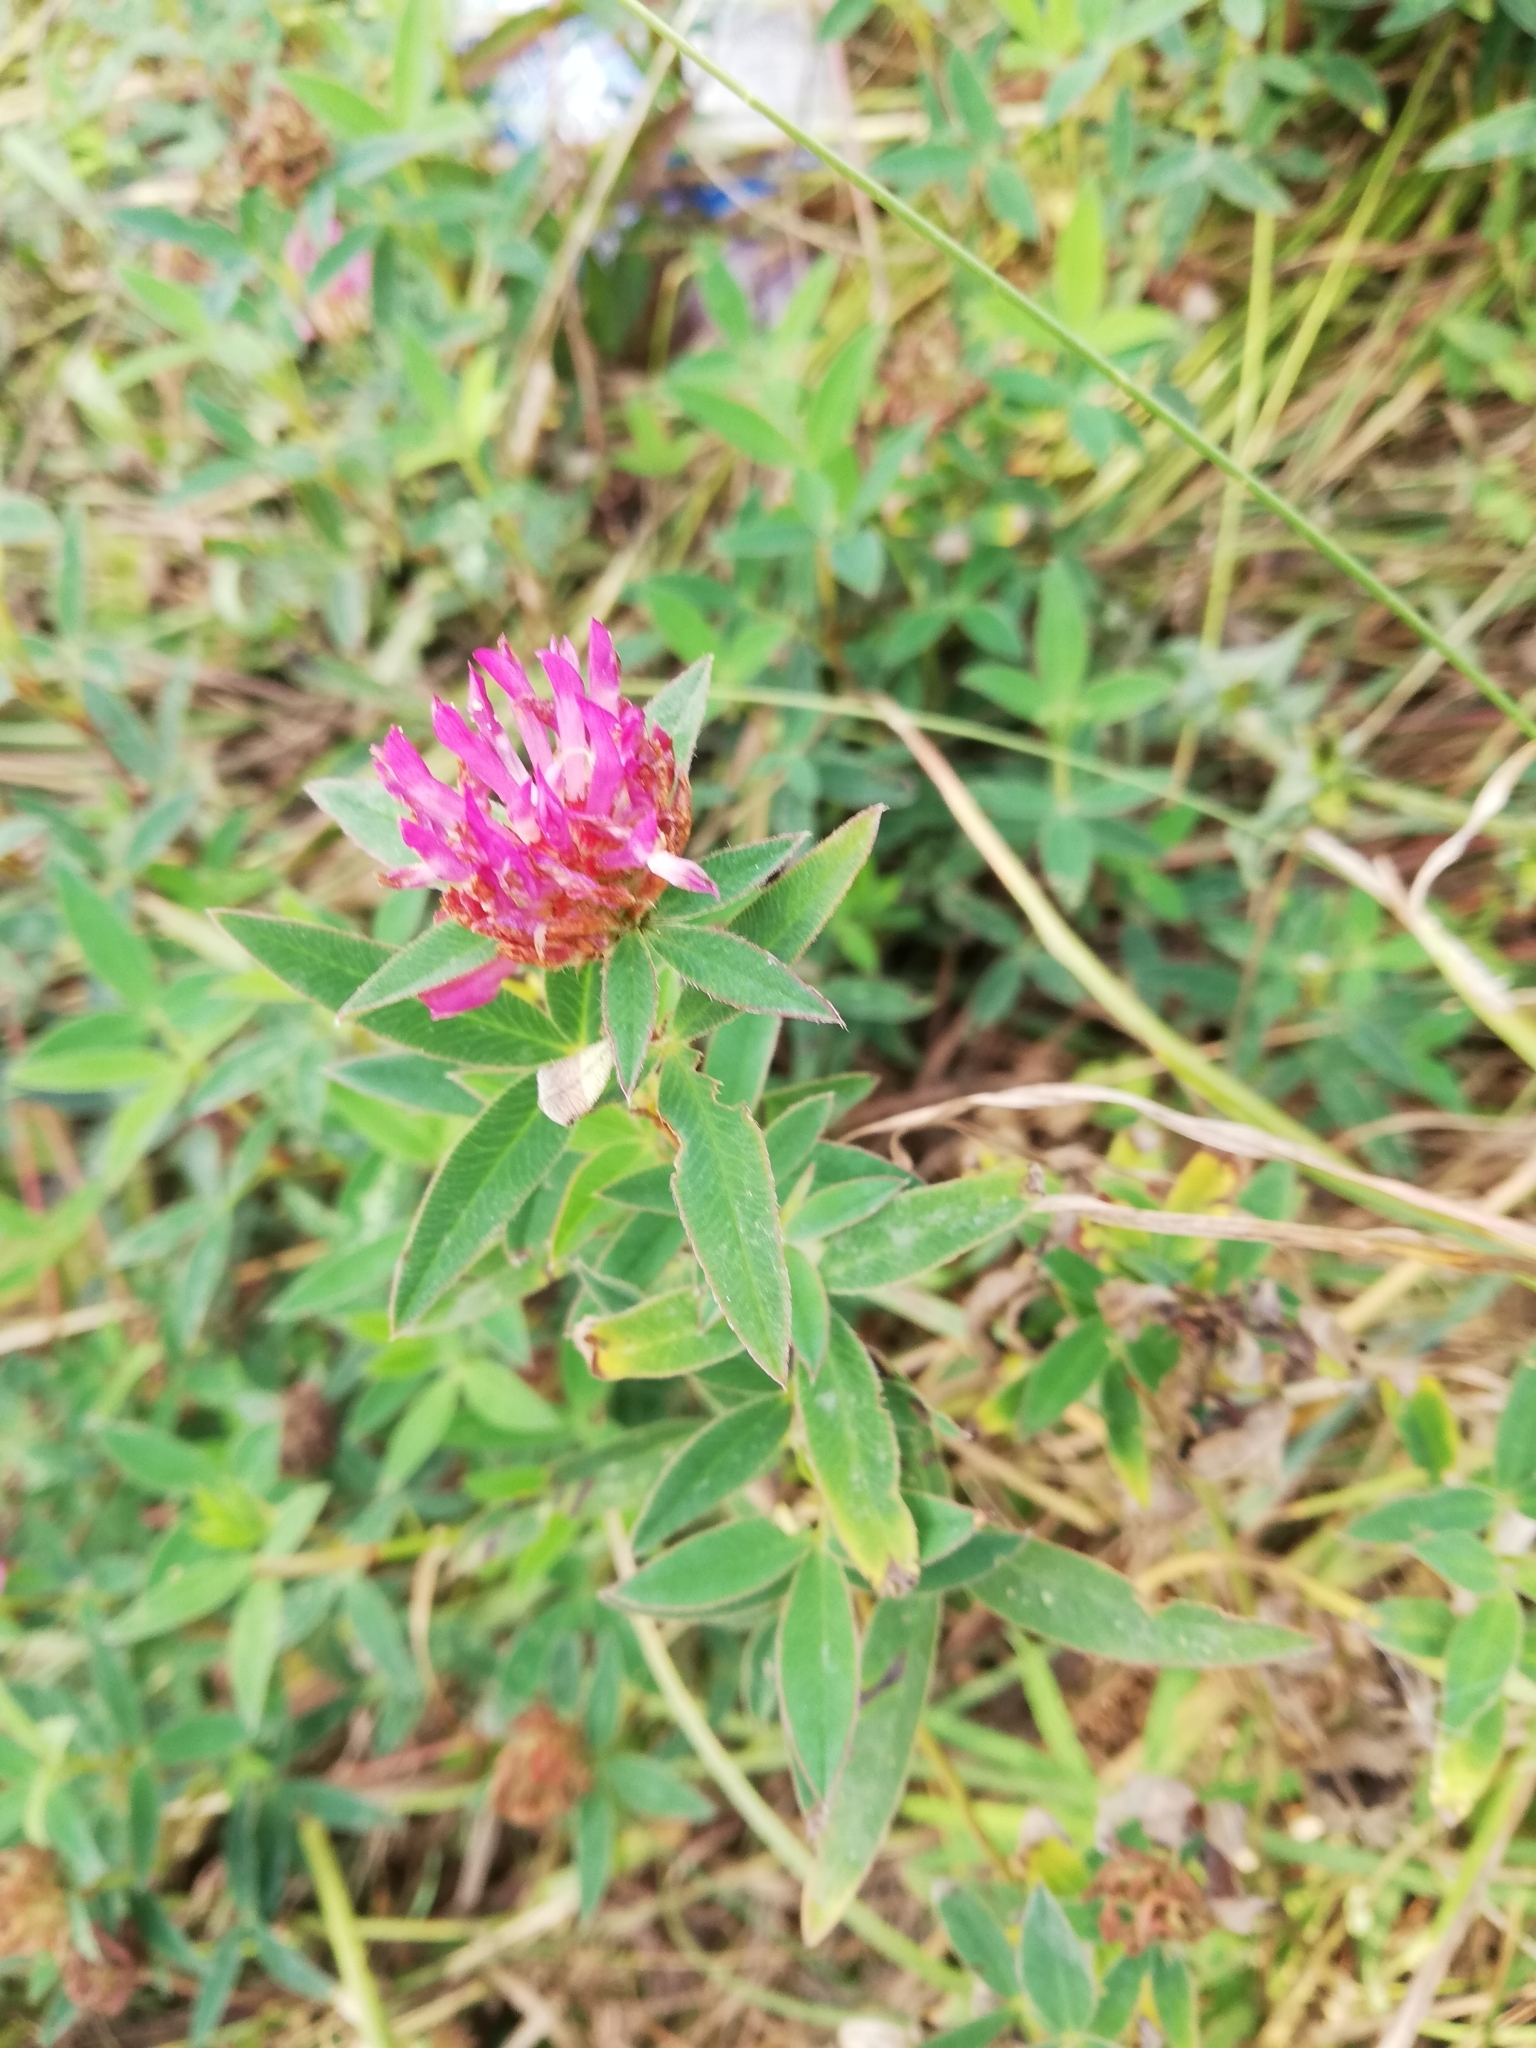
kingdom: Plantae
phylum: Tracheophyta
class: Magnoliopsida
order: Fabales
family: Fabaceae
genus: Trifolium
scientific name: Trifolium medium
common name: Zigzag clover
